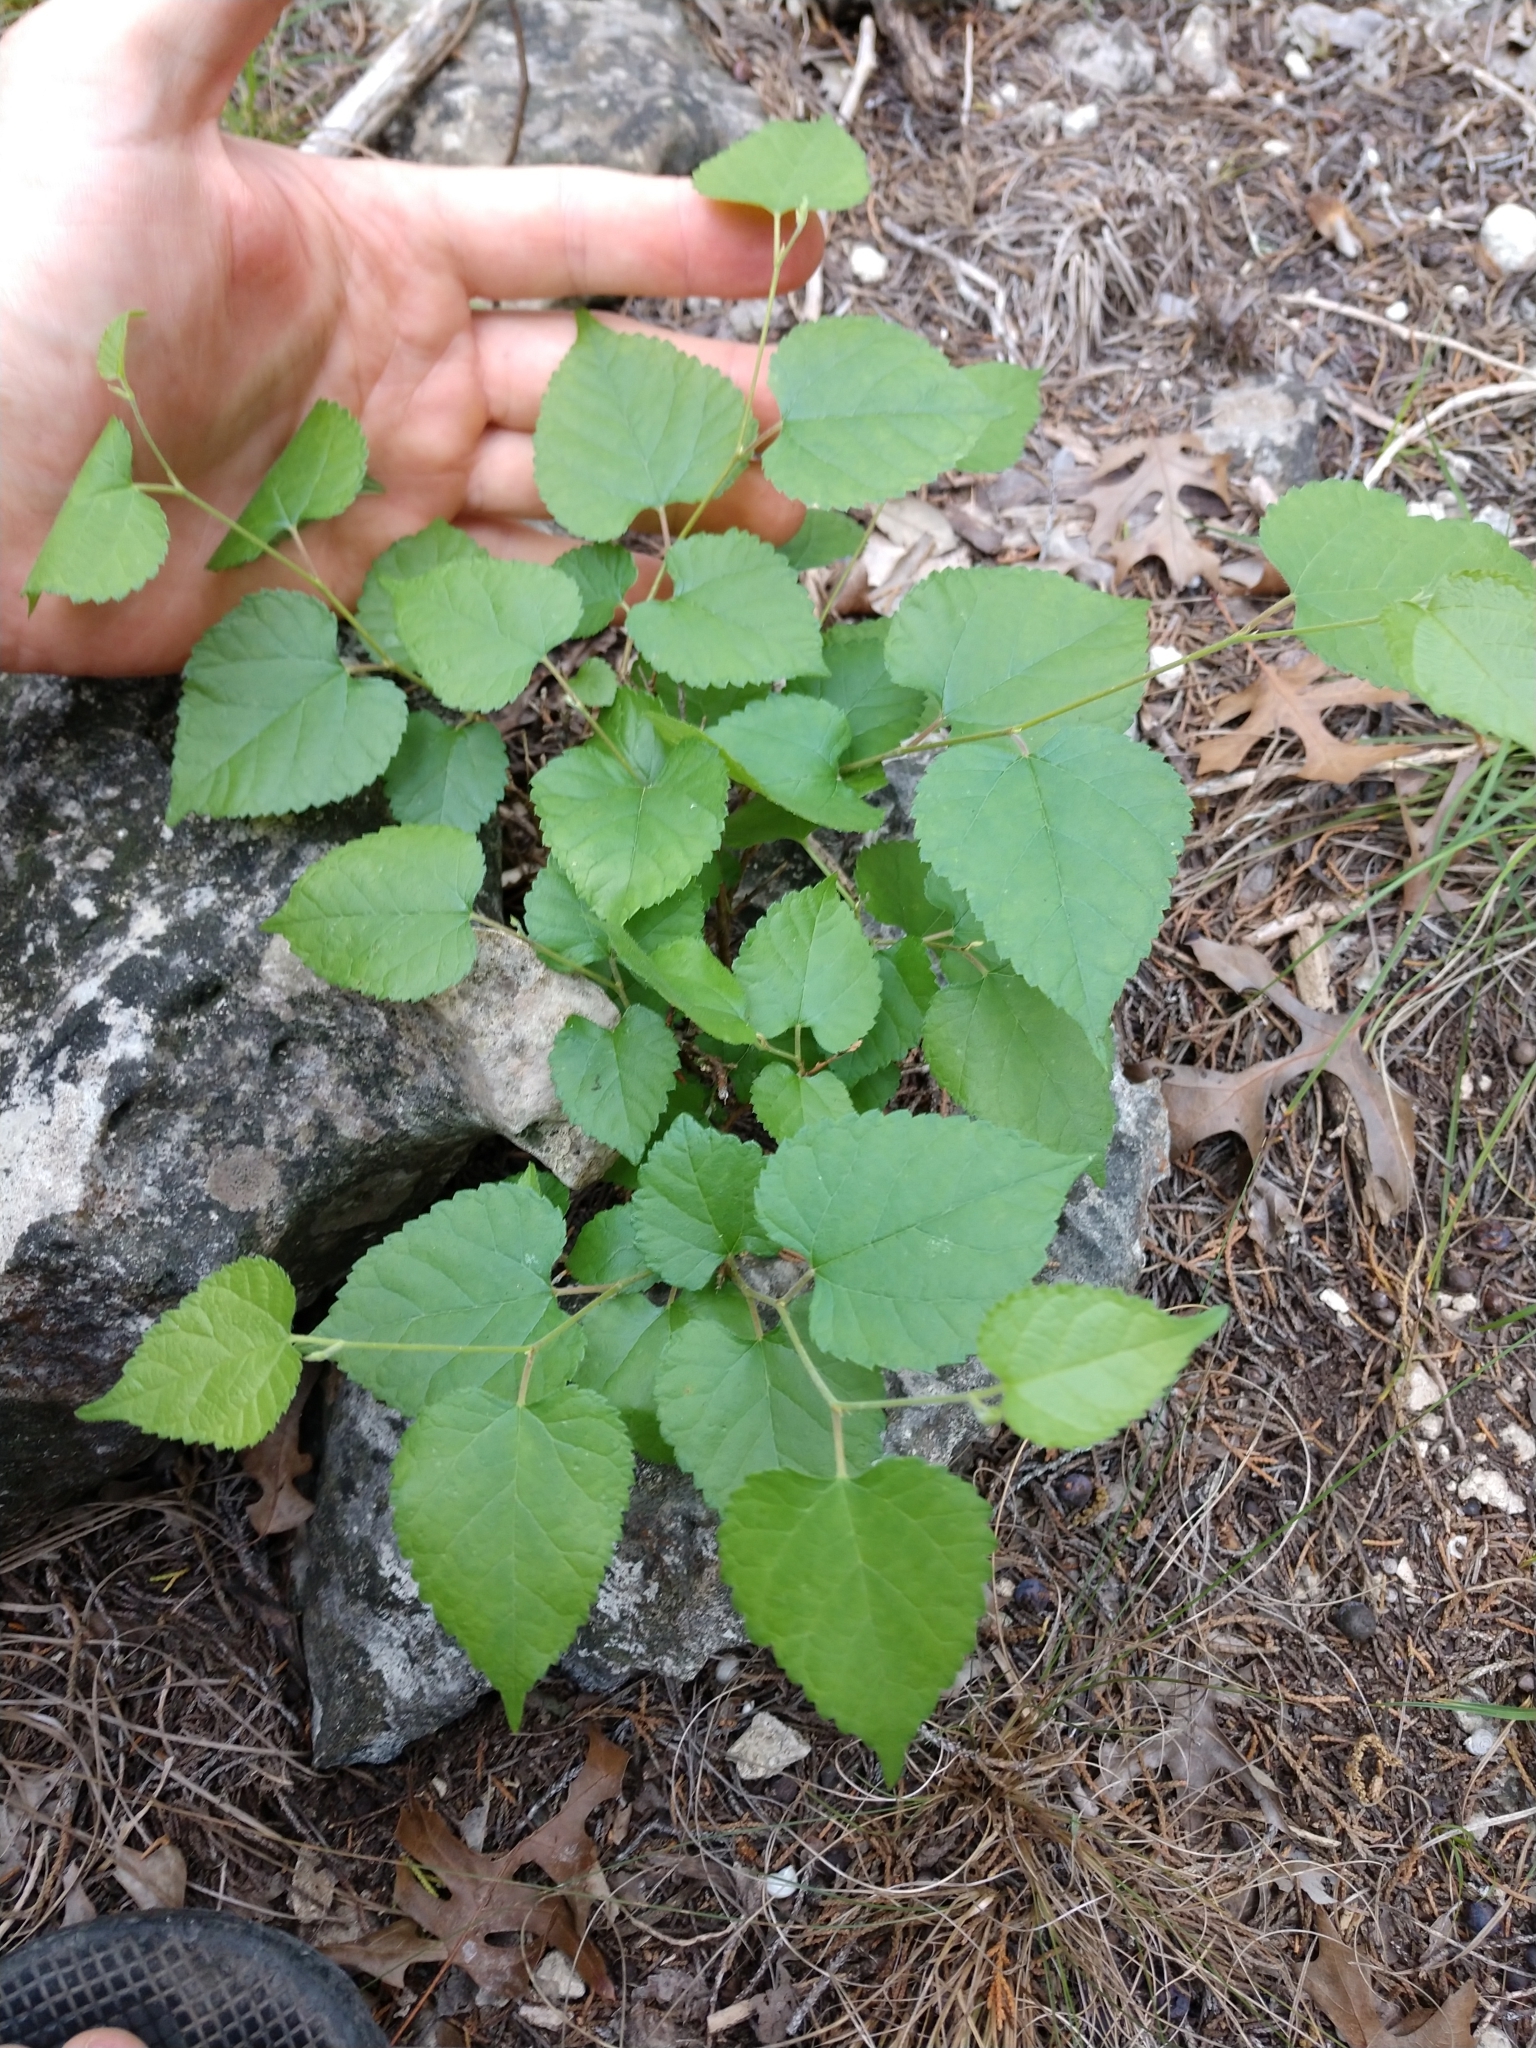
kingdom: Plantae
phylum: Tracheophyta
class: Magnoliopsida
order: Rosales
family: Moraceae
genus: Morus
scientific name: Morus microphylla
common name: Mexican mulberry
